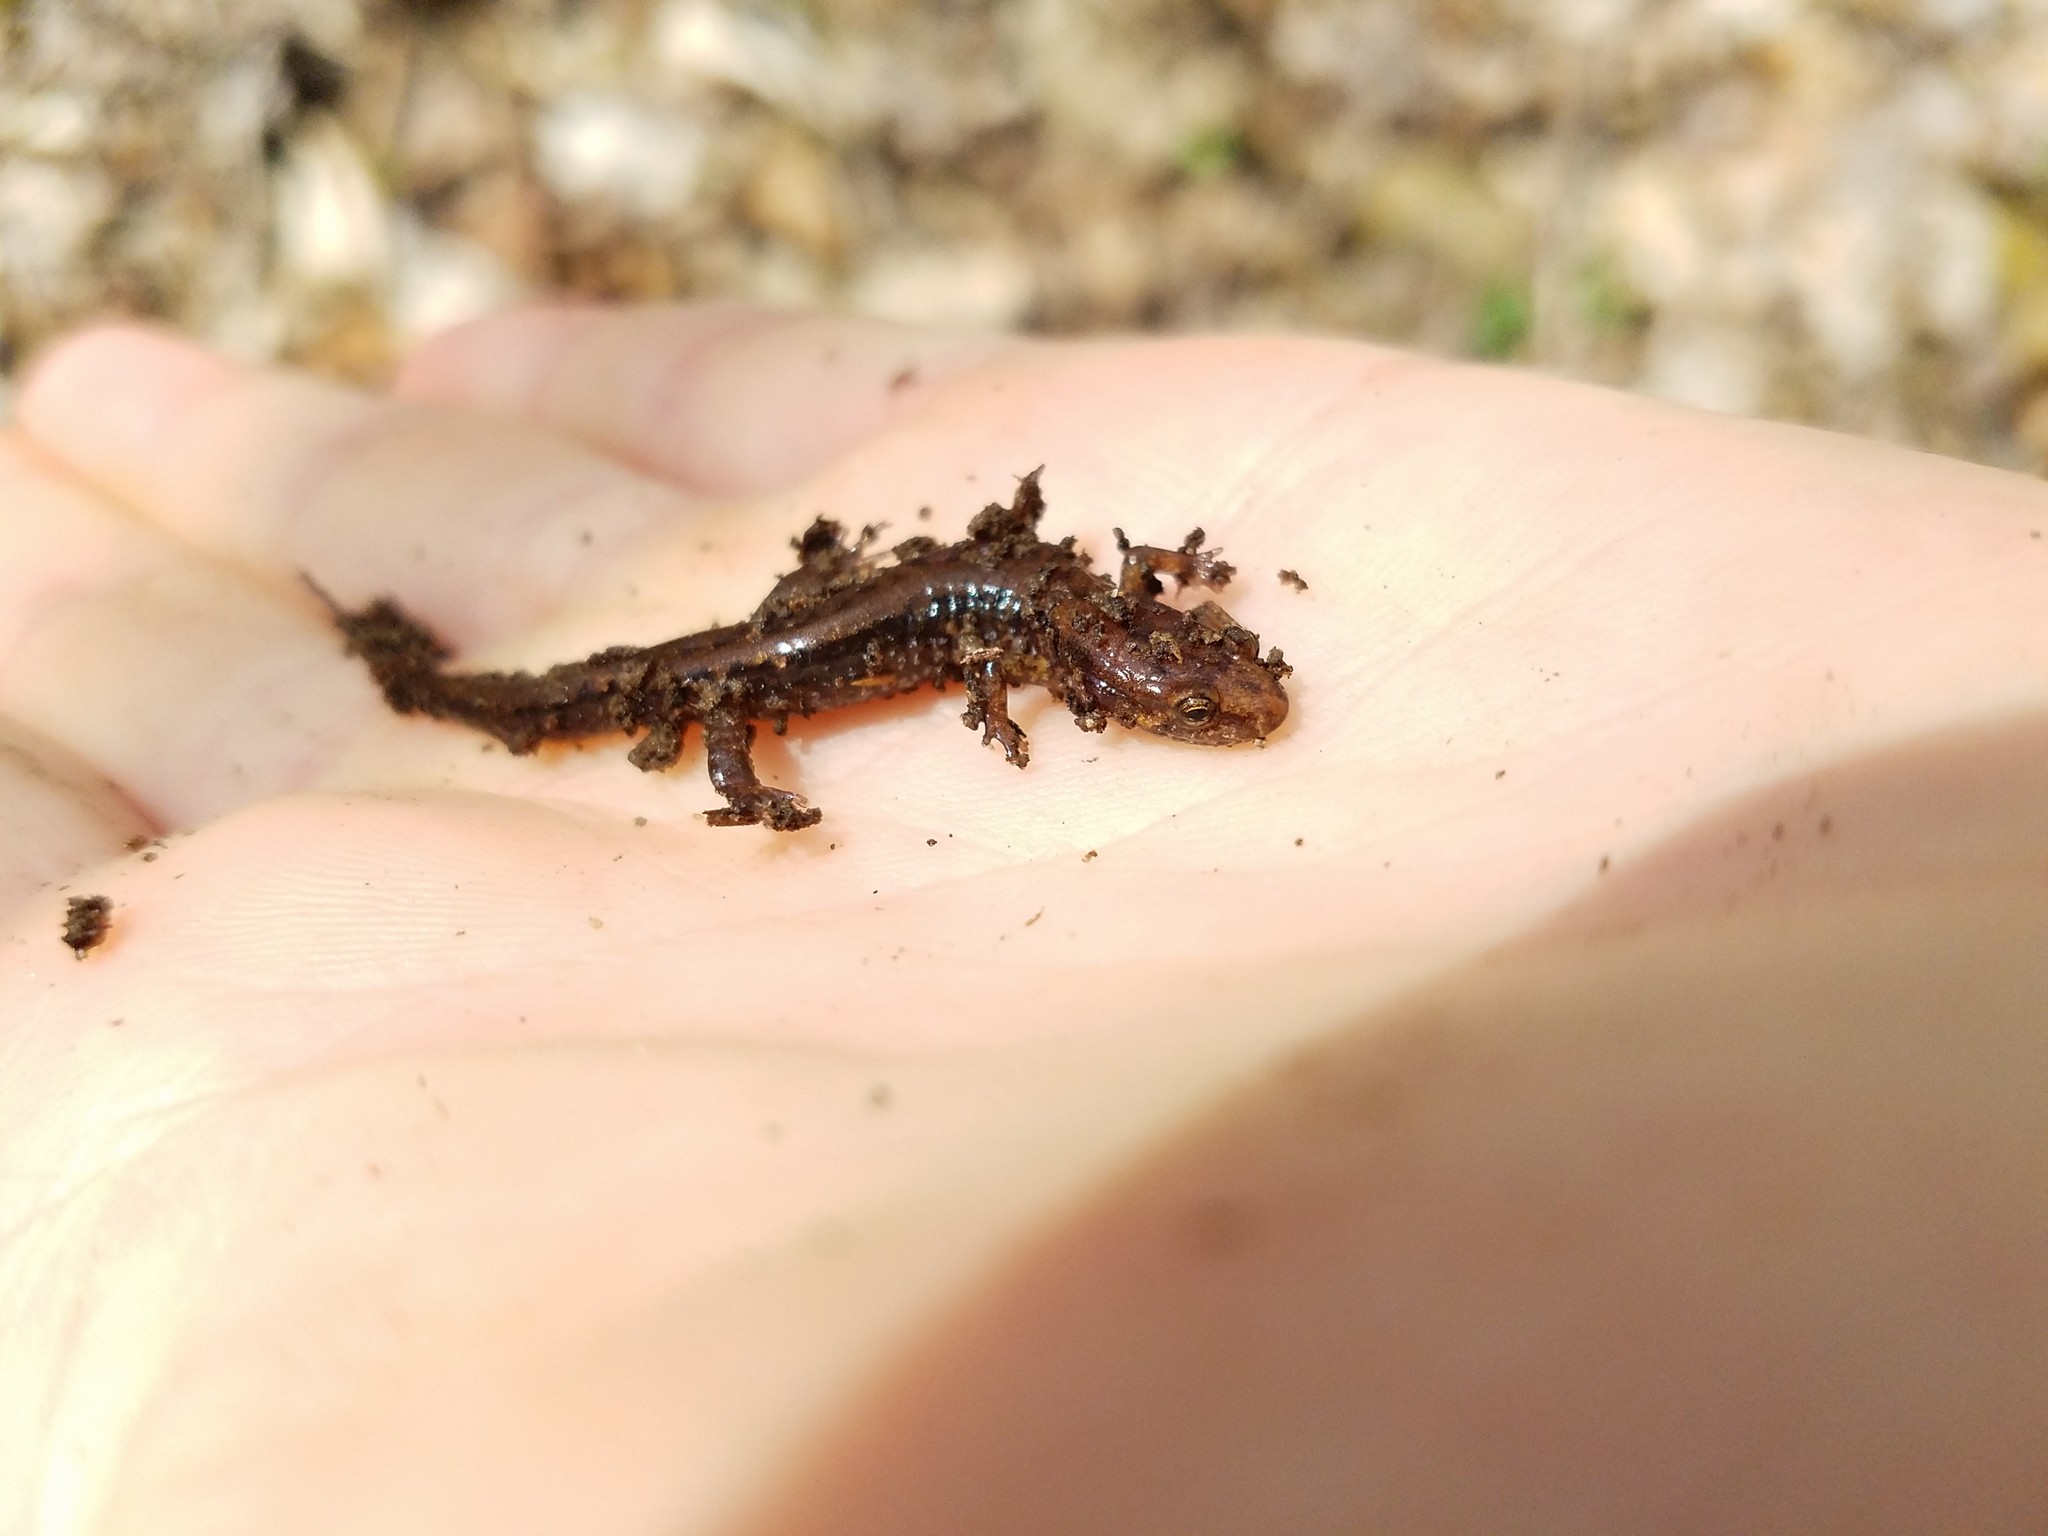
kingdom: Animalia
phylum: Chordata
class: Amphibia
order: Caudata
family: Plethodontidae
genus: Desmognathus
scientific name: Desmognathus ochrophaeus
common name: Allegheny mountain dusky salamander
